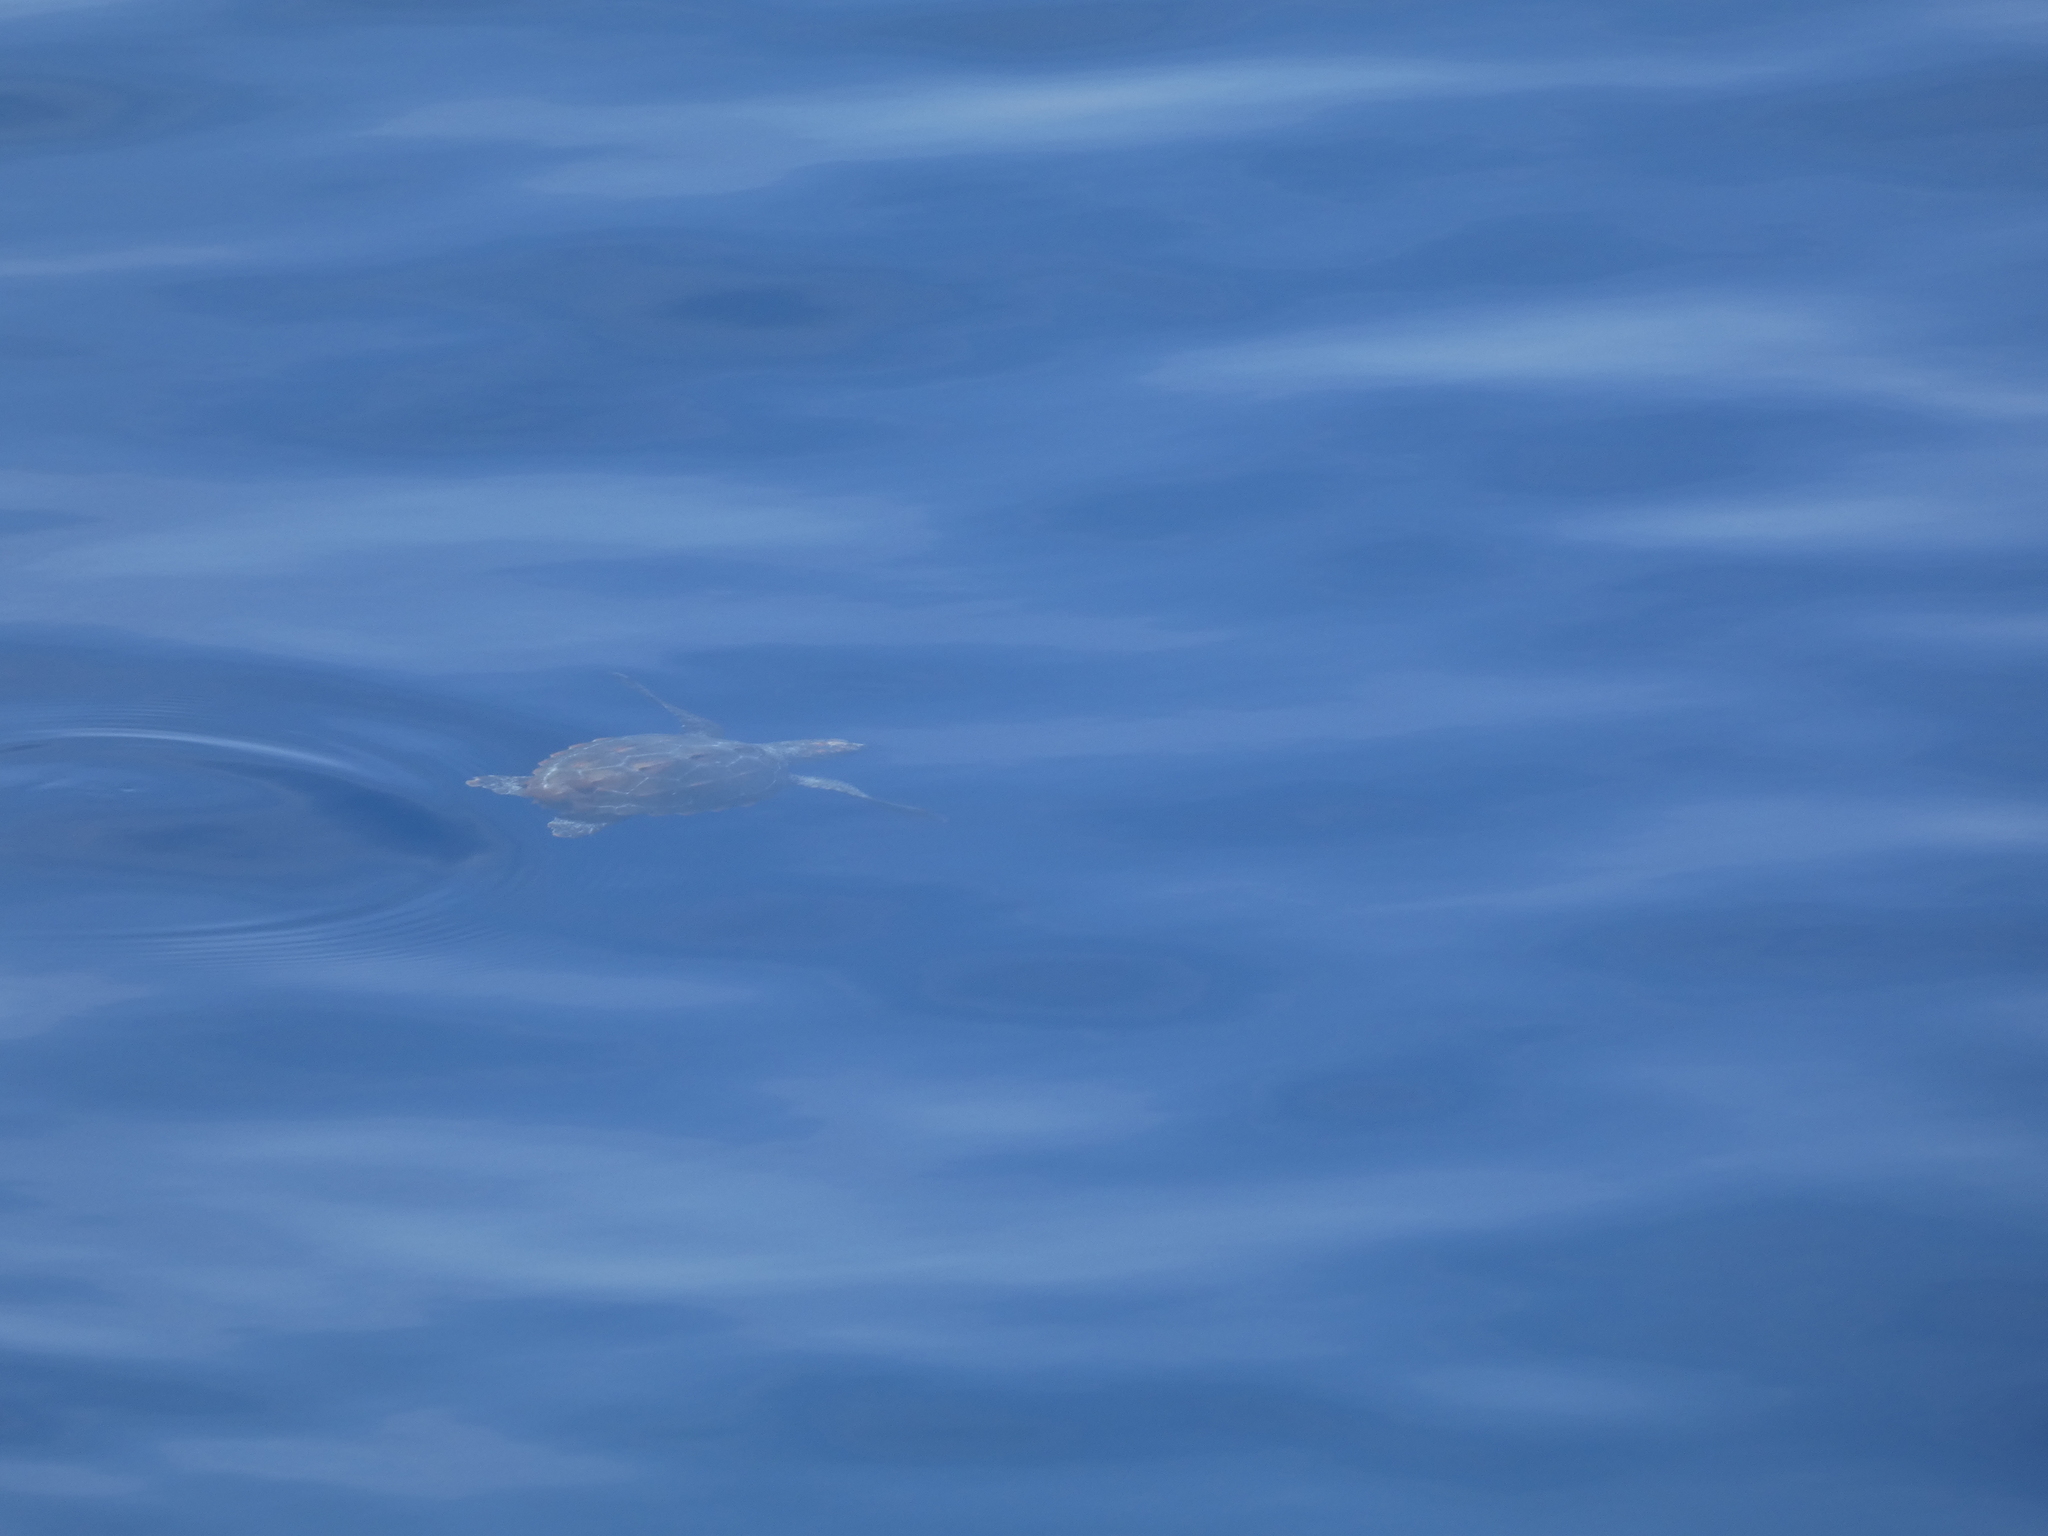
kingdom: Animalia
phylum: Chordata
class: Testudines
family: Cheloniidae
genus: Caretta
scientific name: Caretta caretta
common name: Loggerhead sea turtle
